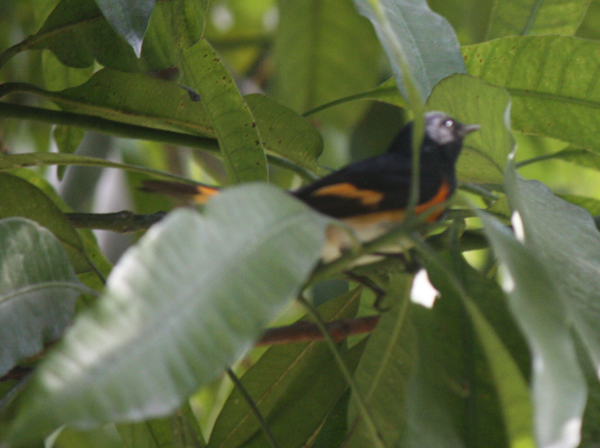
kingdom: Animalia
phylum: Chordata
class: Aves
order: Passeriformes
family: Parulidae
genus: Setophaga
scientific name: Setophaga ruticilla
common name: American redstart
